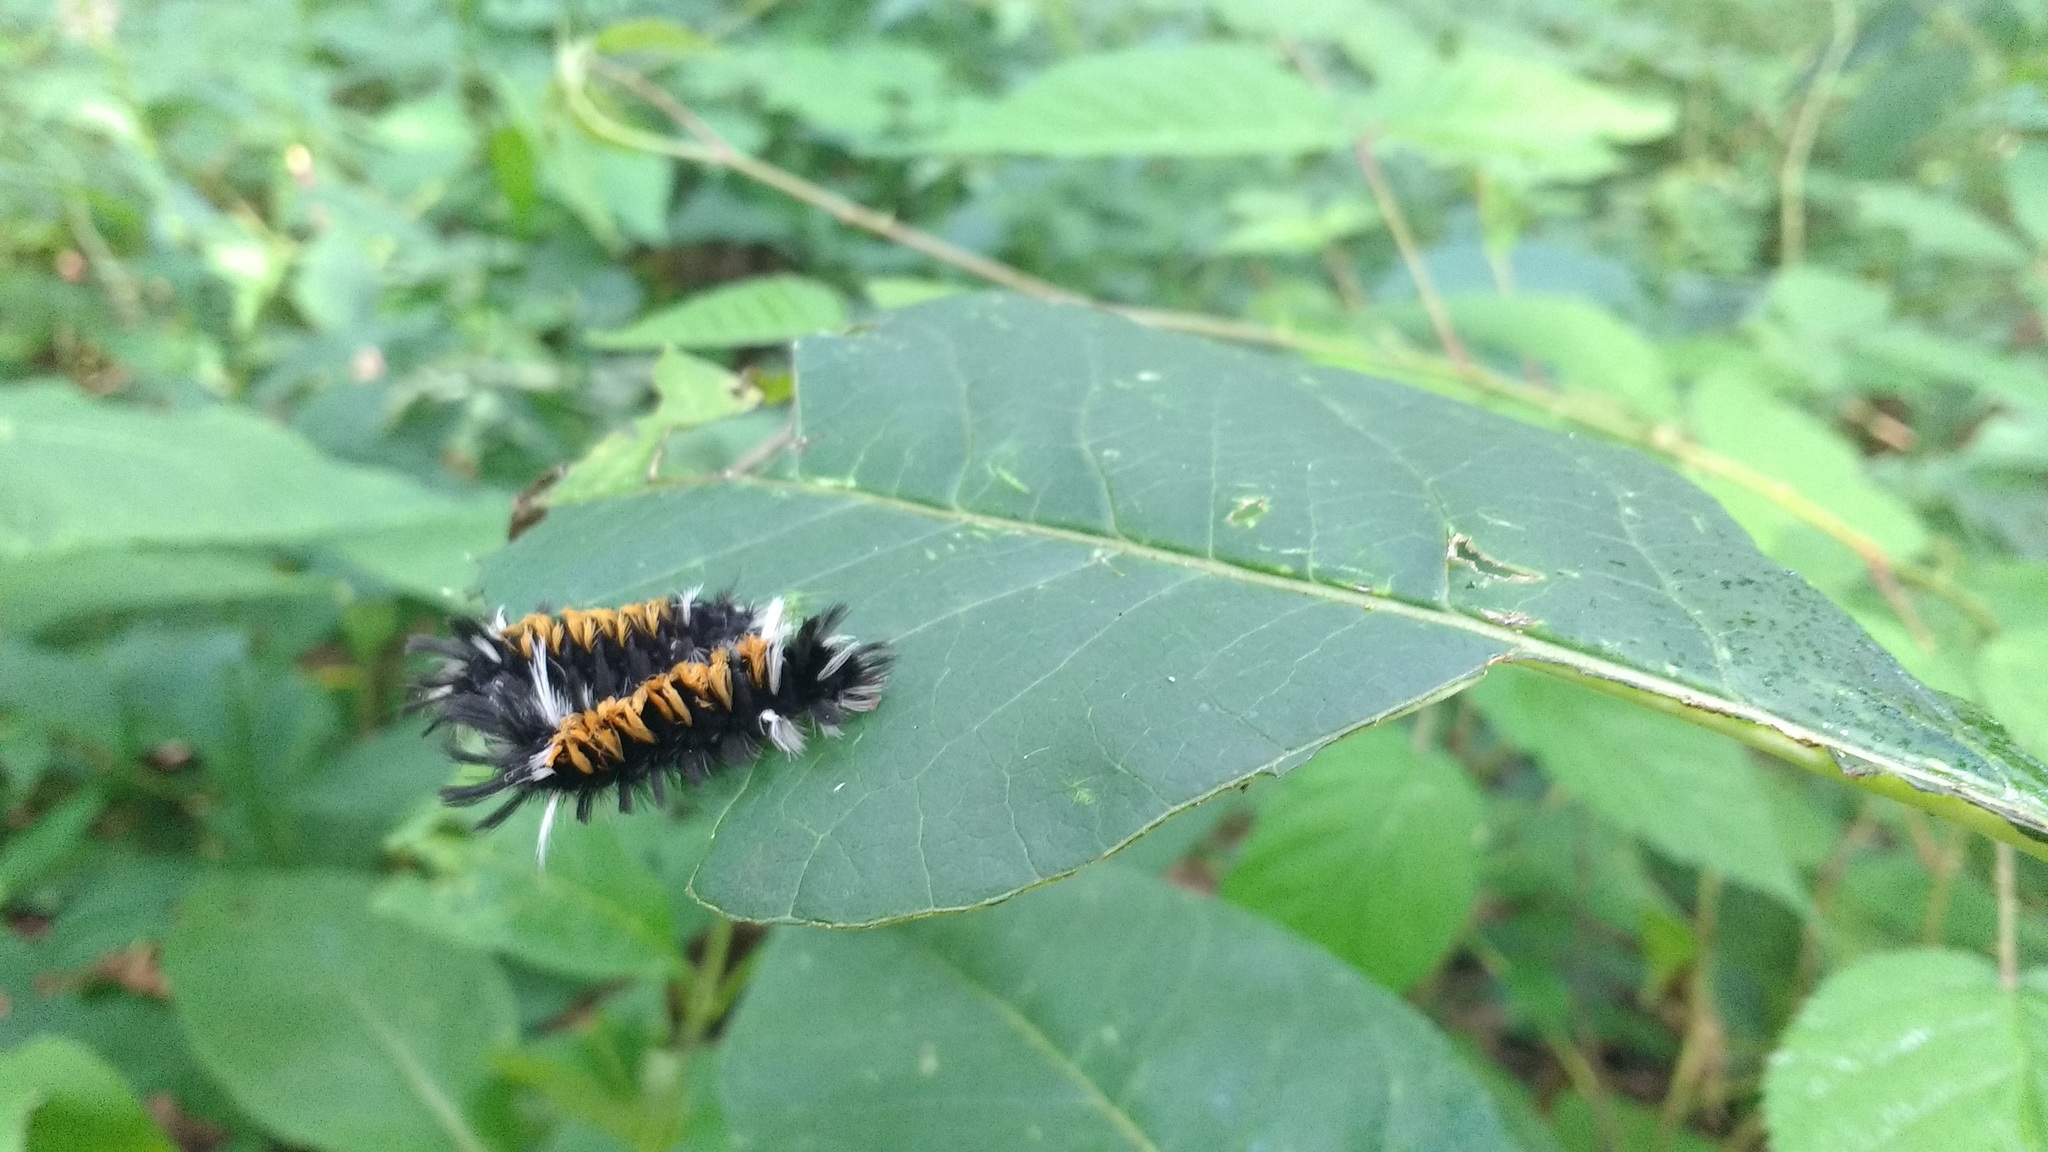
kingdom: Animalia
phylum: Arthropoda
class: Insecta
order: Lepidoptera
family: Erebidae
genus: Euchaetes
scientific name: Euchaetes egle
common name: Milkweed tussock moth
